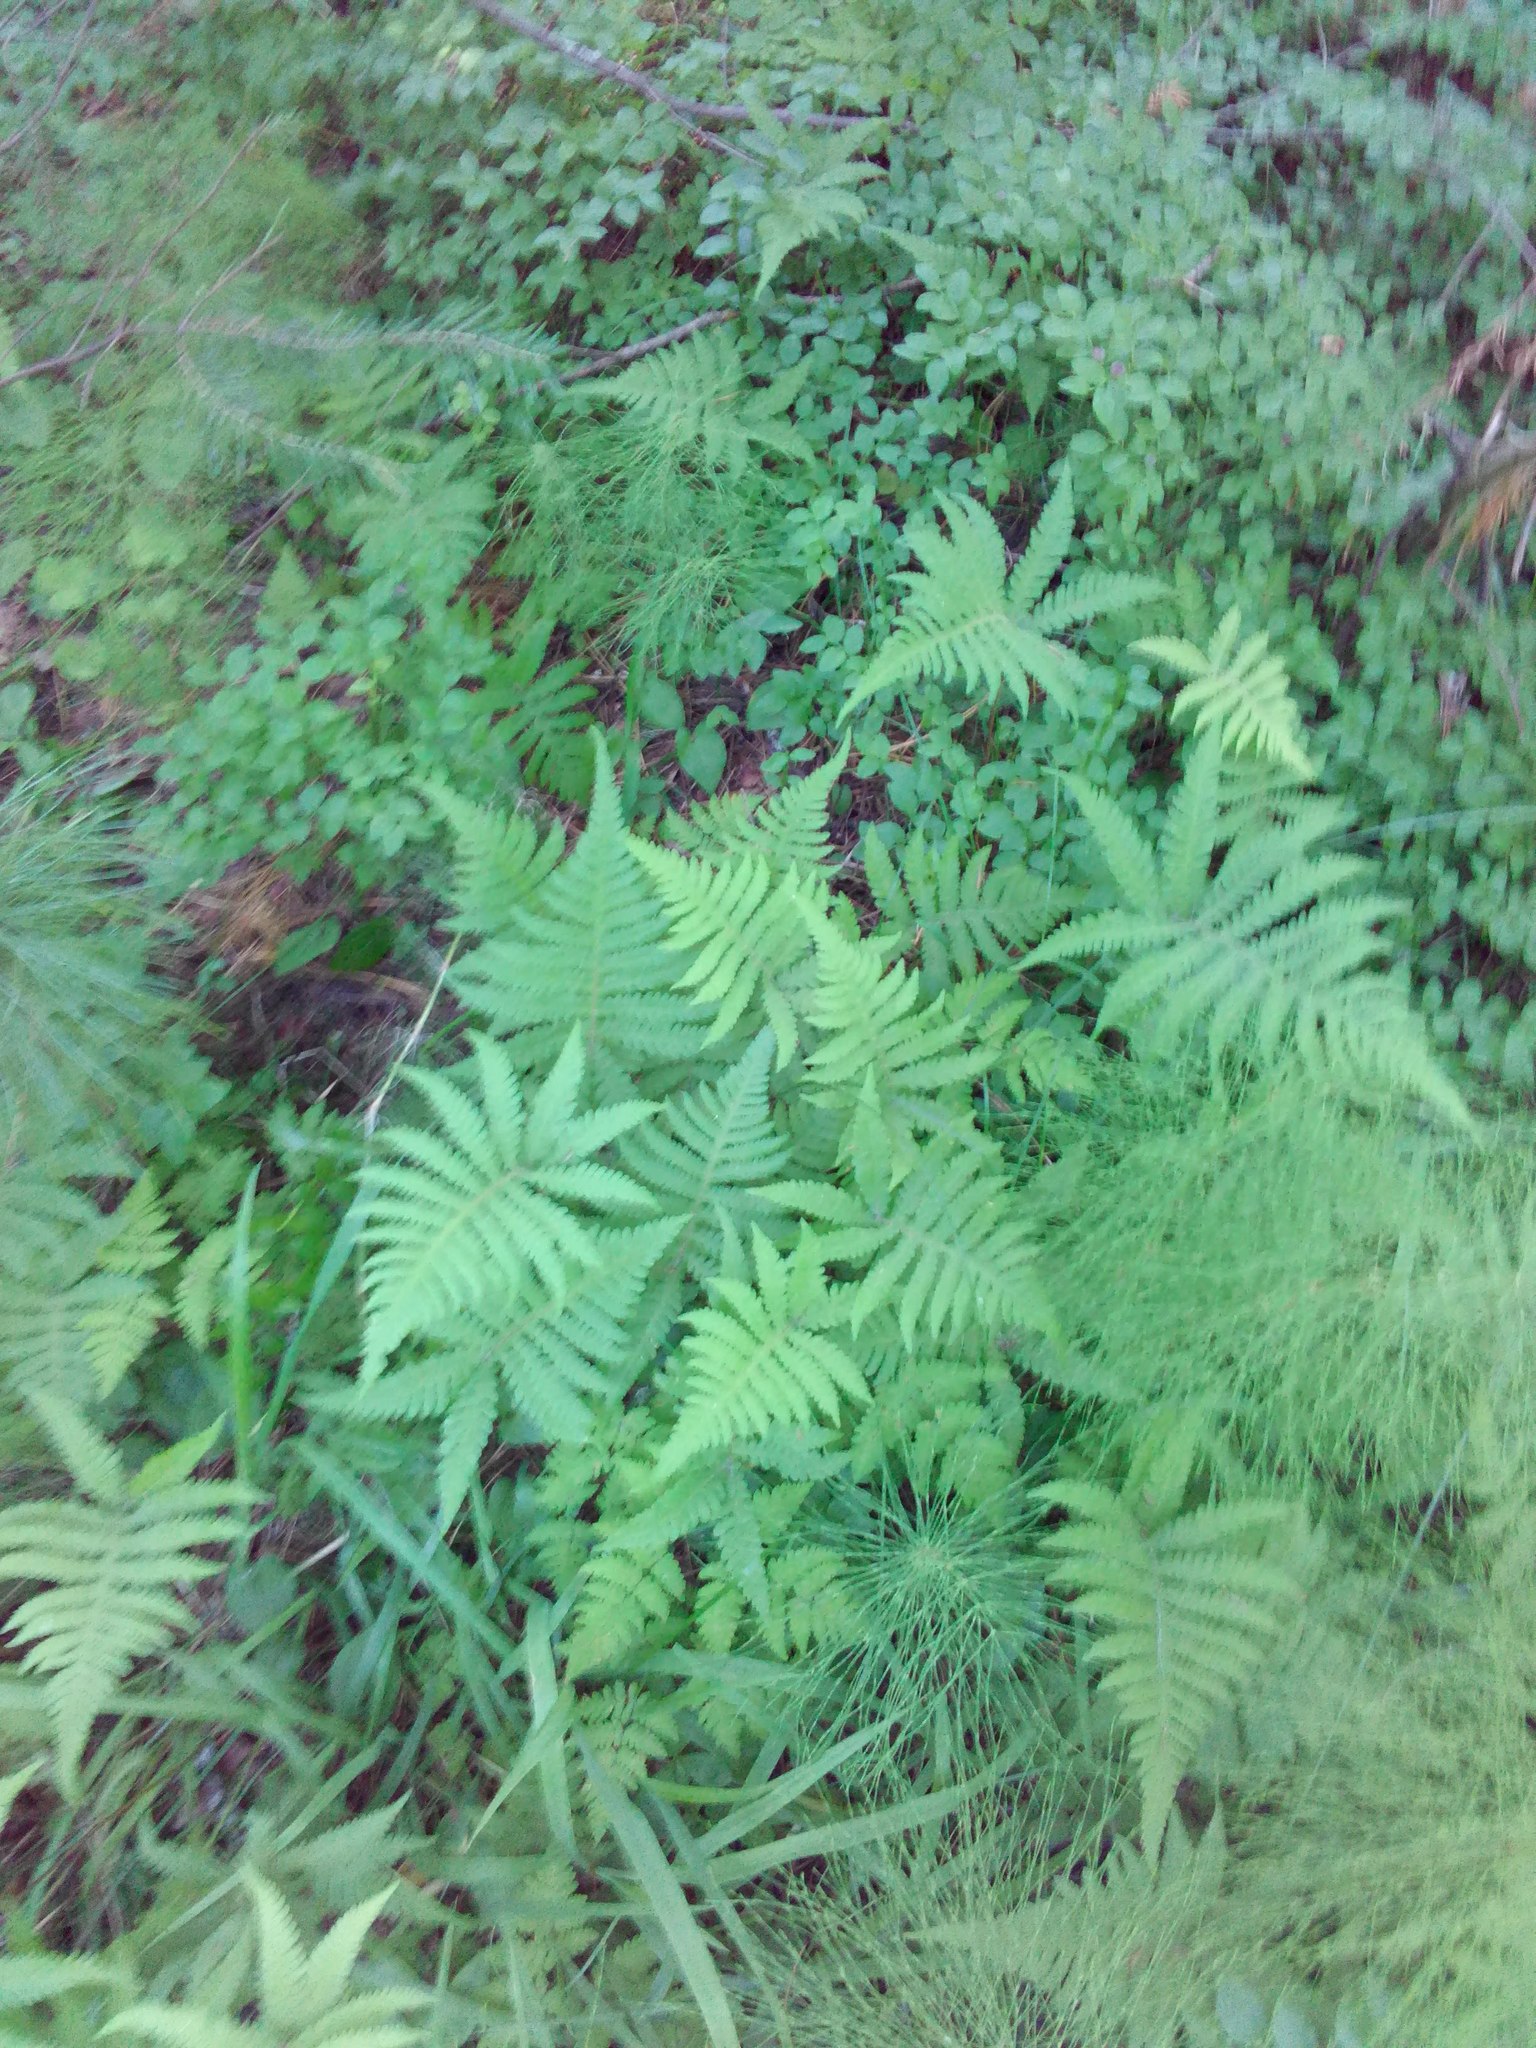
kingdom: Plantae
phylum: Tracheophyta
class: Polypodiopsida
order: Polypodiales
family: Thelypteridaceae
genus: Phegopteris
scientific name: Phegopteris connectilis
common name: Beech fern
